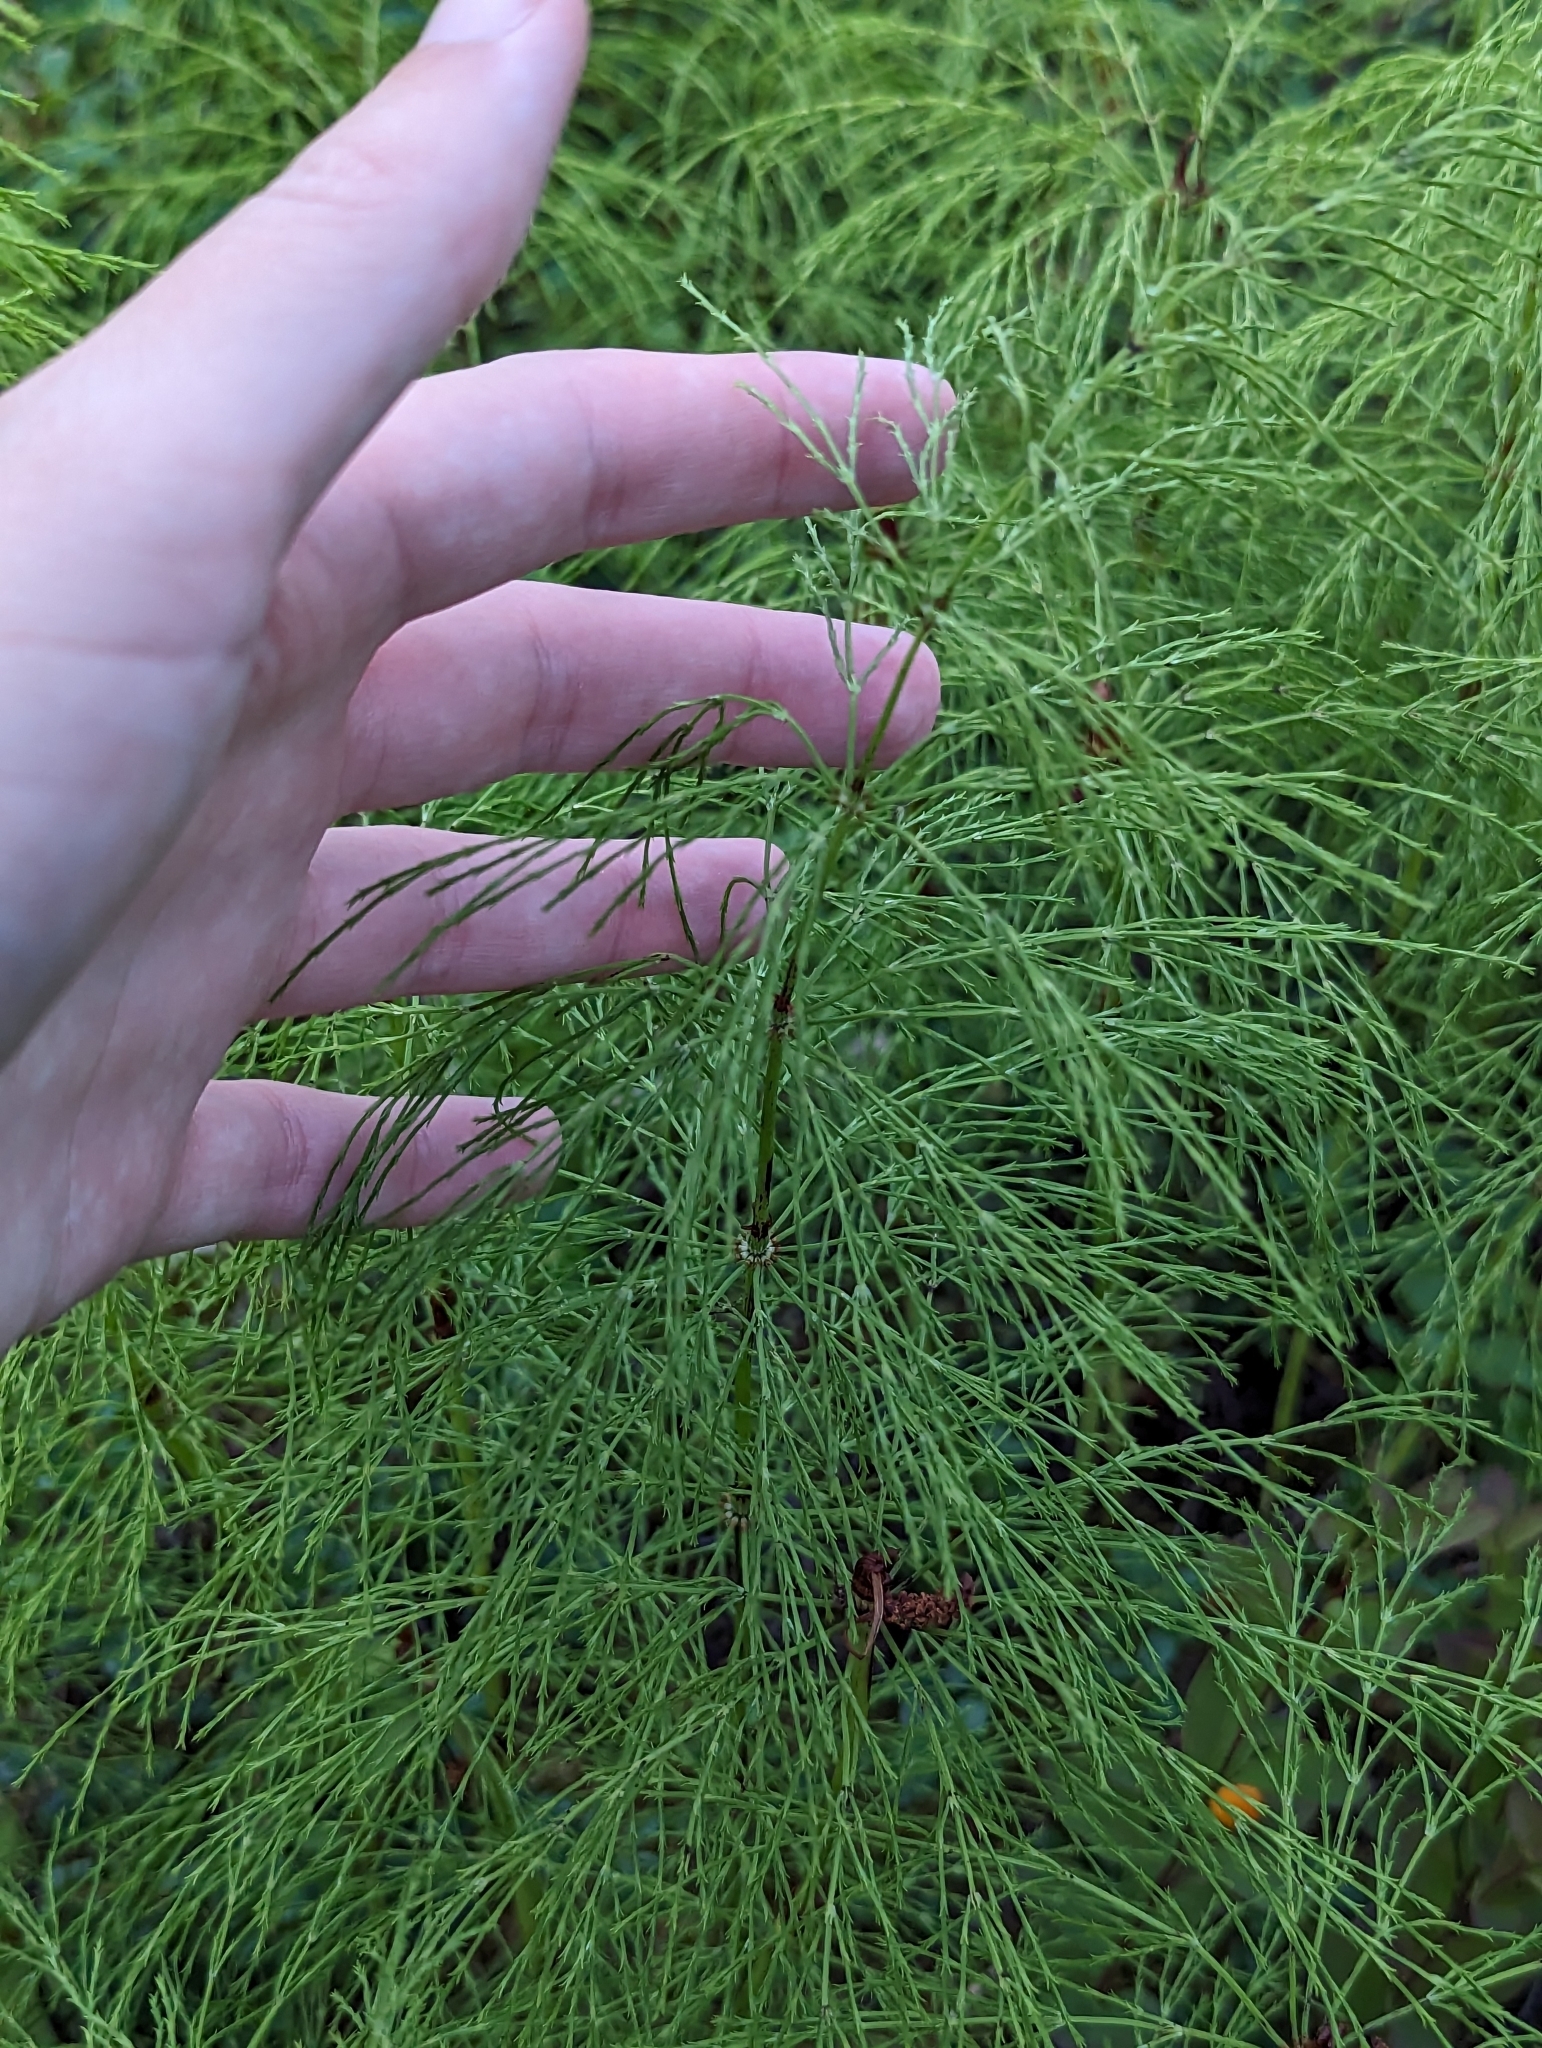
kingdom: Plantae
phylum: Tracheophyta
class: Polypodiopsida
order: Equisetales
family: Equisetaceae
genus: Equisetum
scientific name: Equisetum sylvaticum
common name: Wood horsetail
